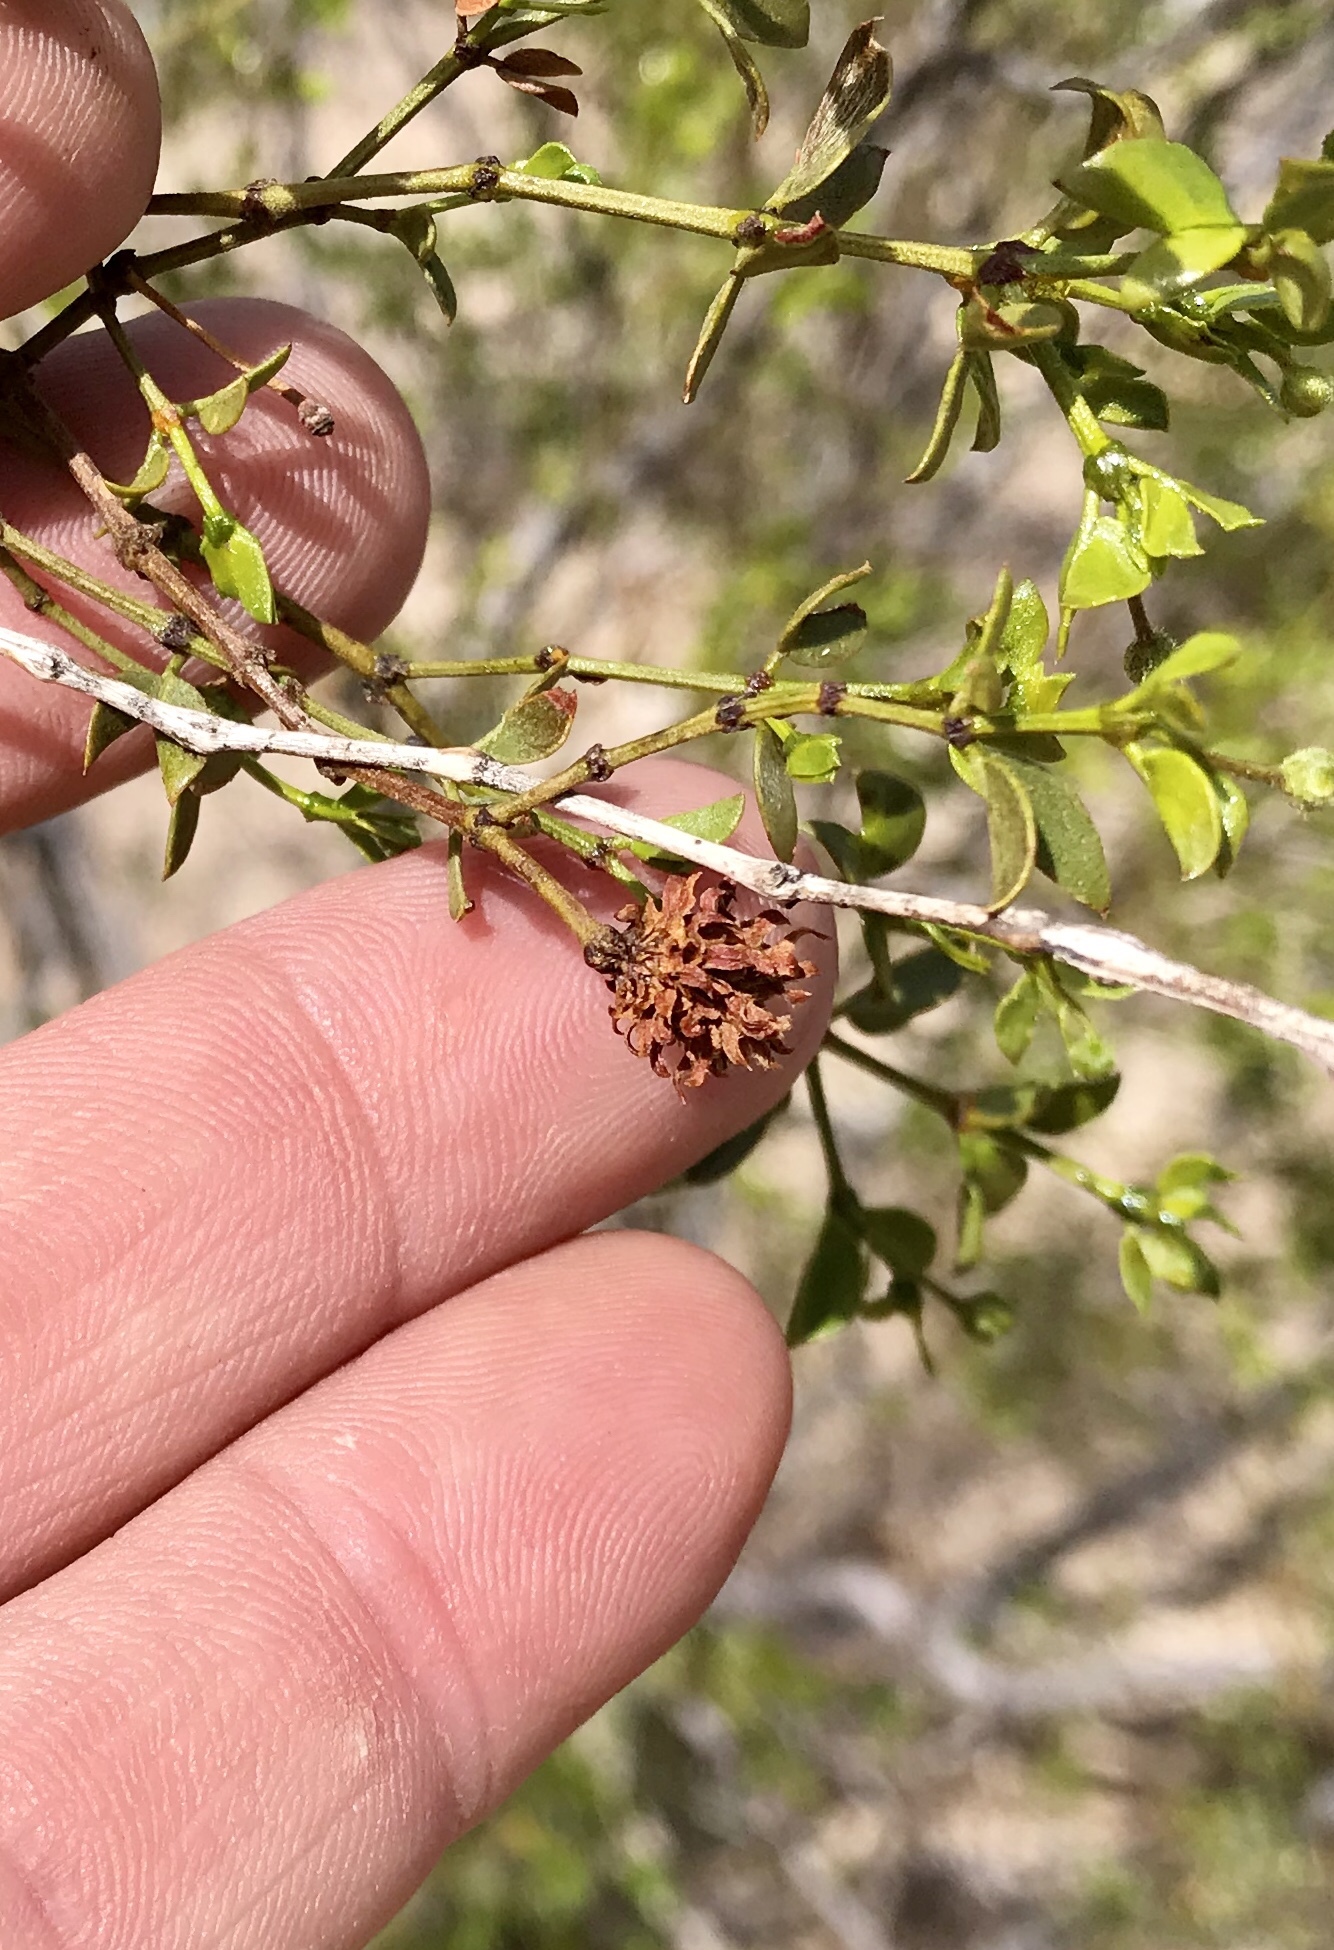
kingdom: Animalia
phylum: Arthropoda
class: Insecta
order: Diptera
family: Cecidomyiidae
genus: Asphondylia
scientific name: Asphondylia rosetta
